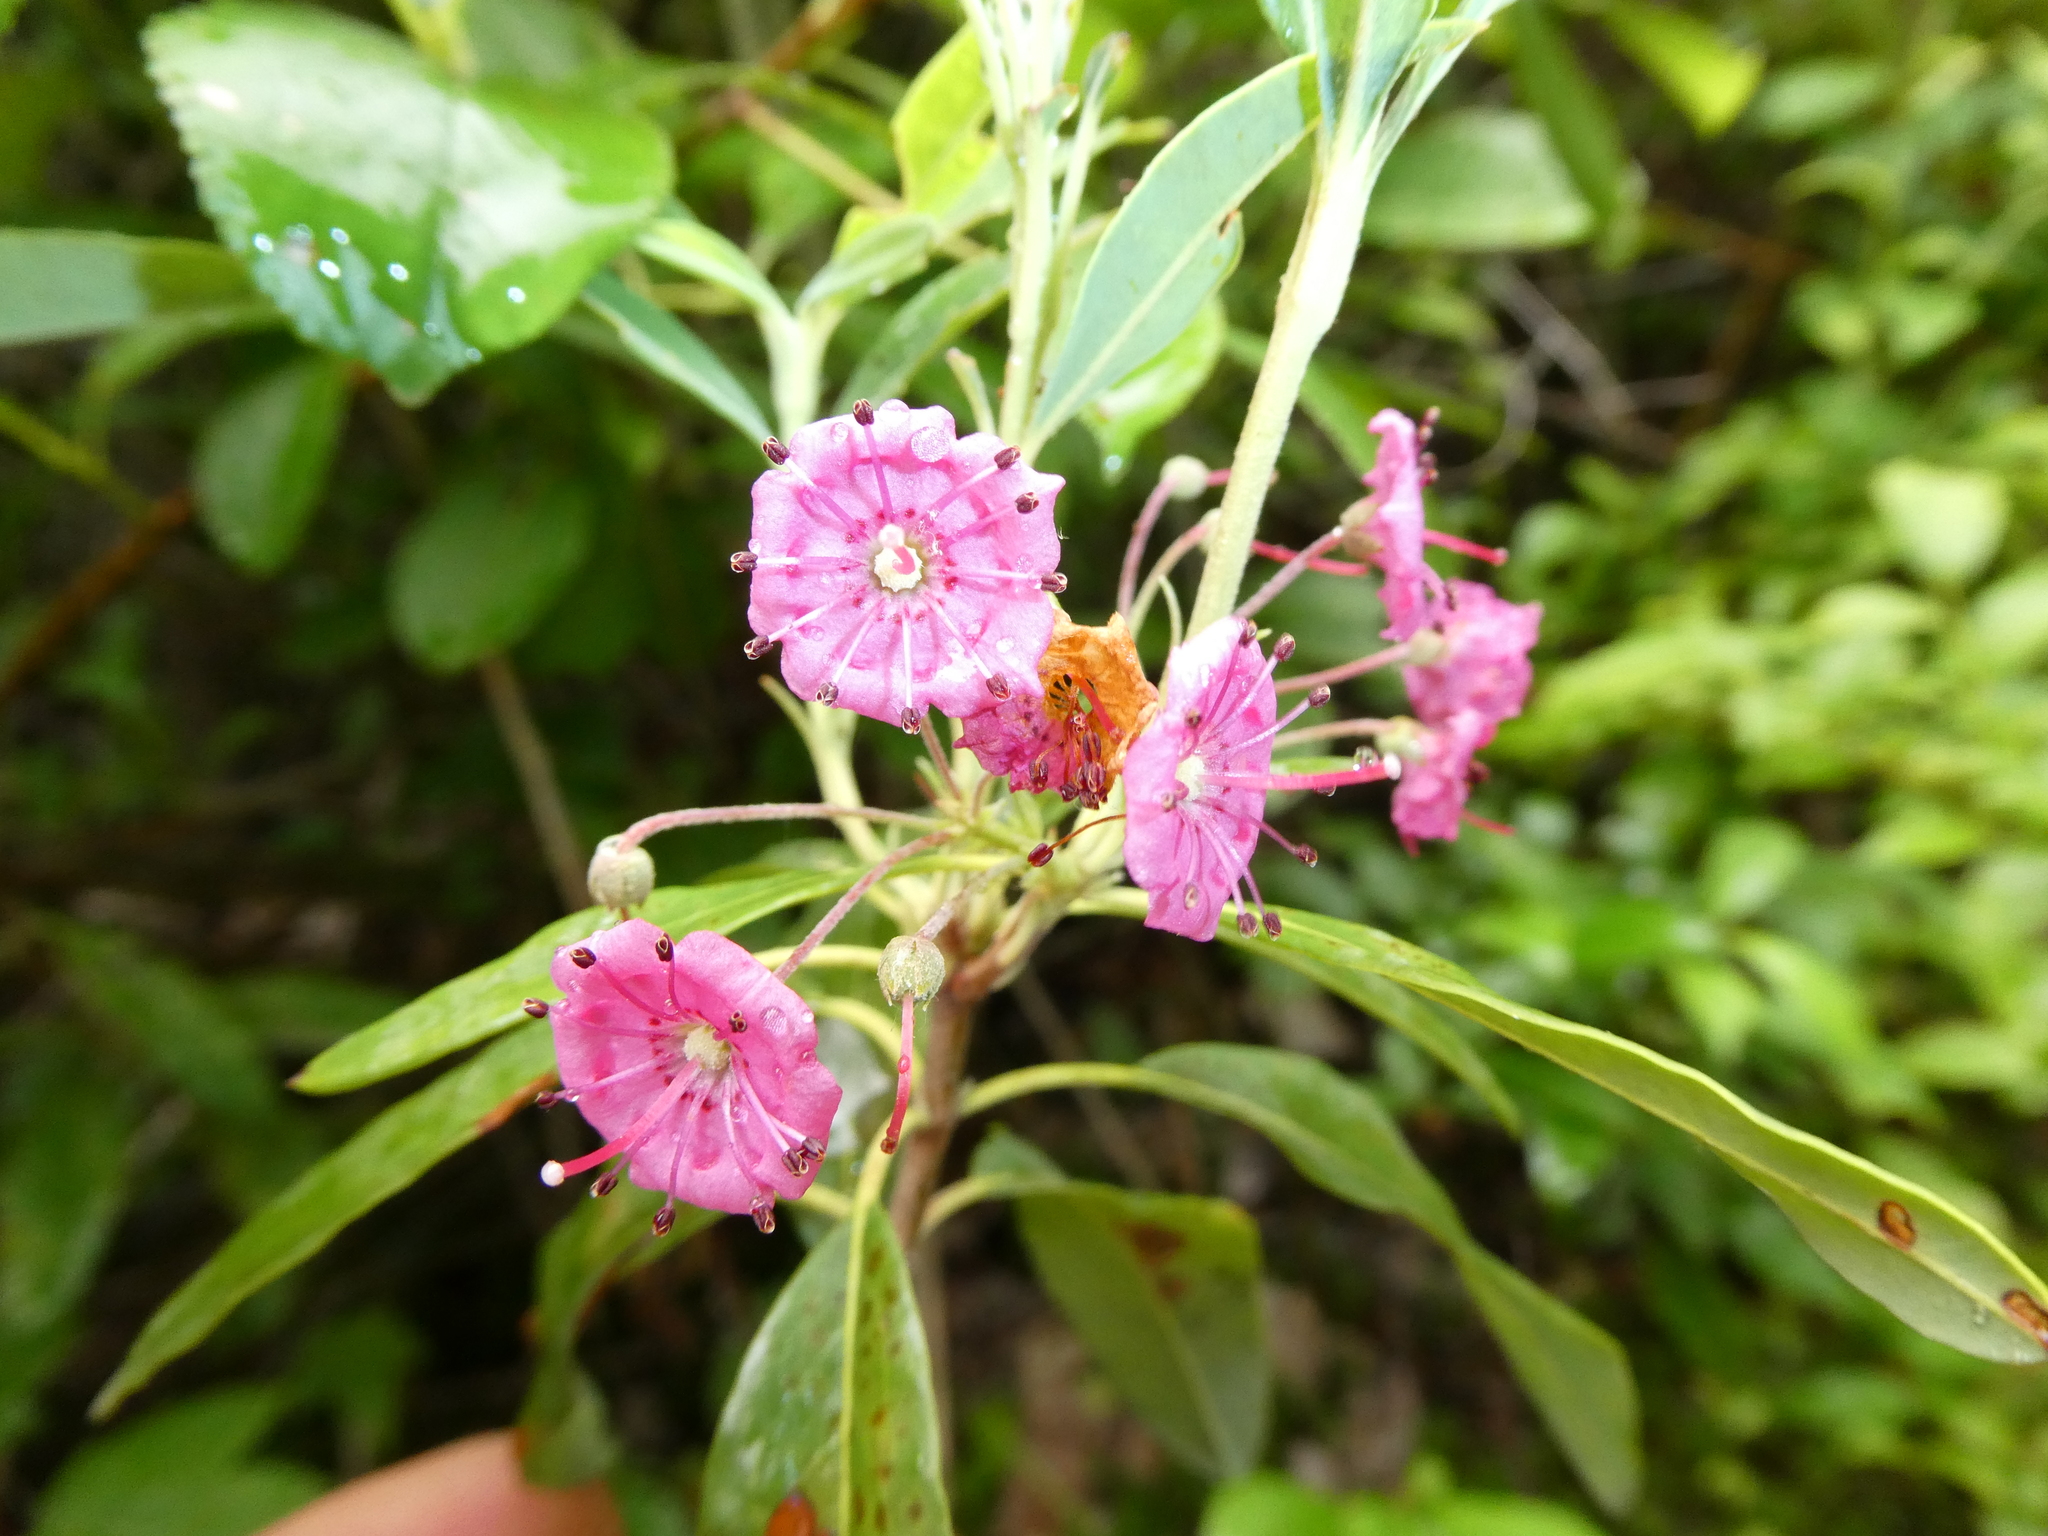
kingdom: Plantae
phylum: Tracheophyta
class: Magnoliopsida
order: Ericales
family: Ericaceae
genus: Kalmia
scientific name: Kalmia angustifolia
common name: Sheep-laurel
